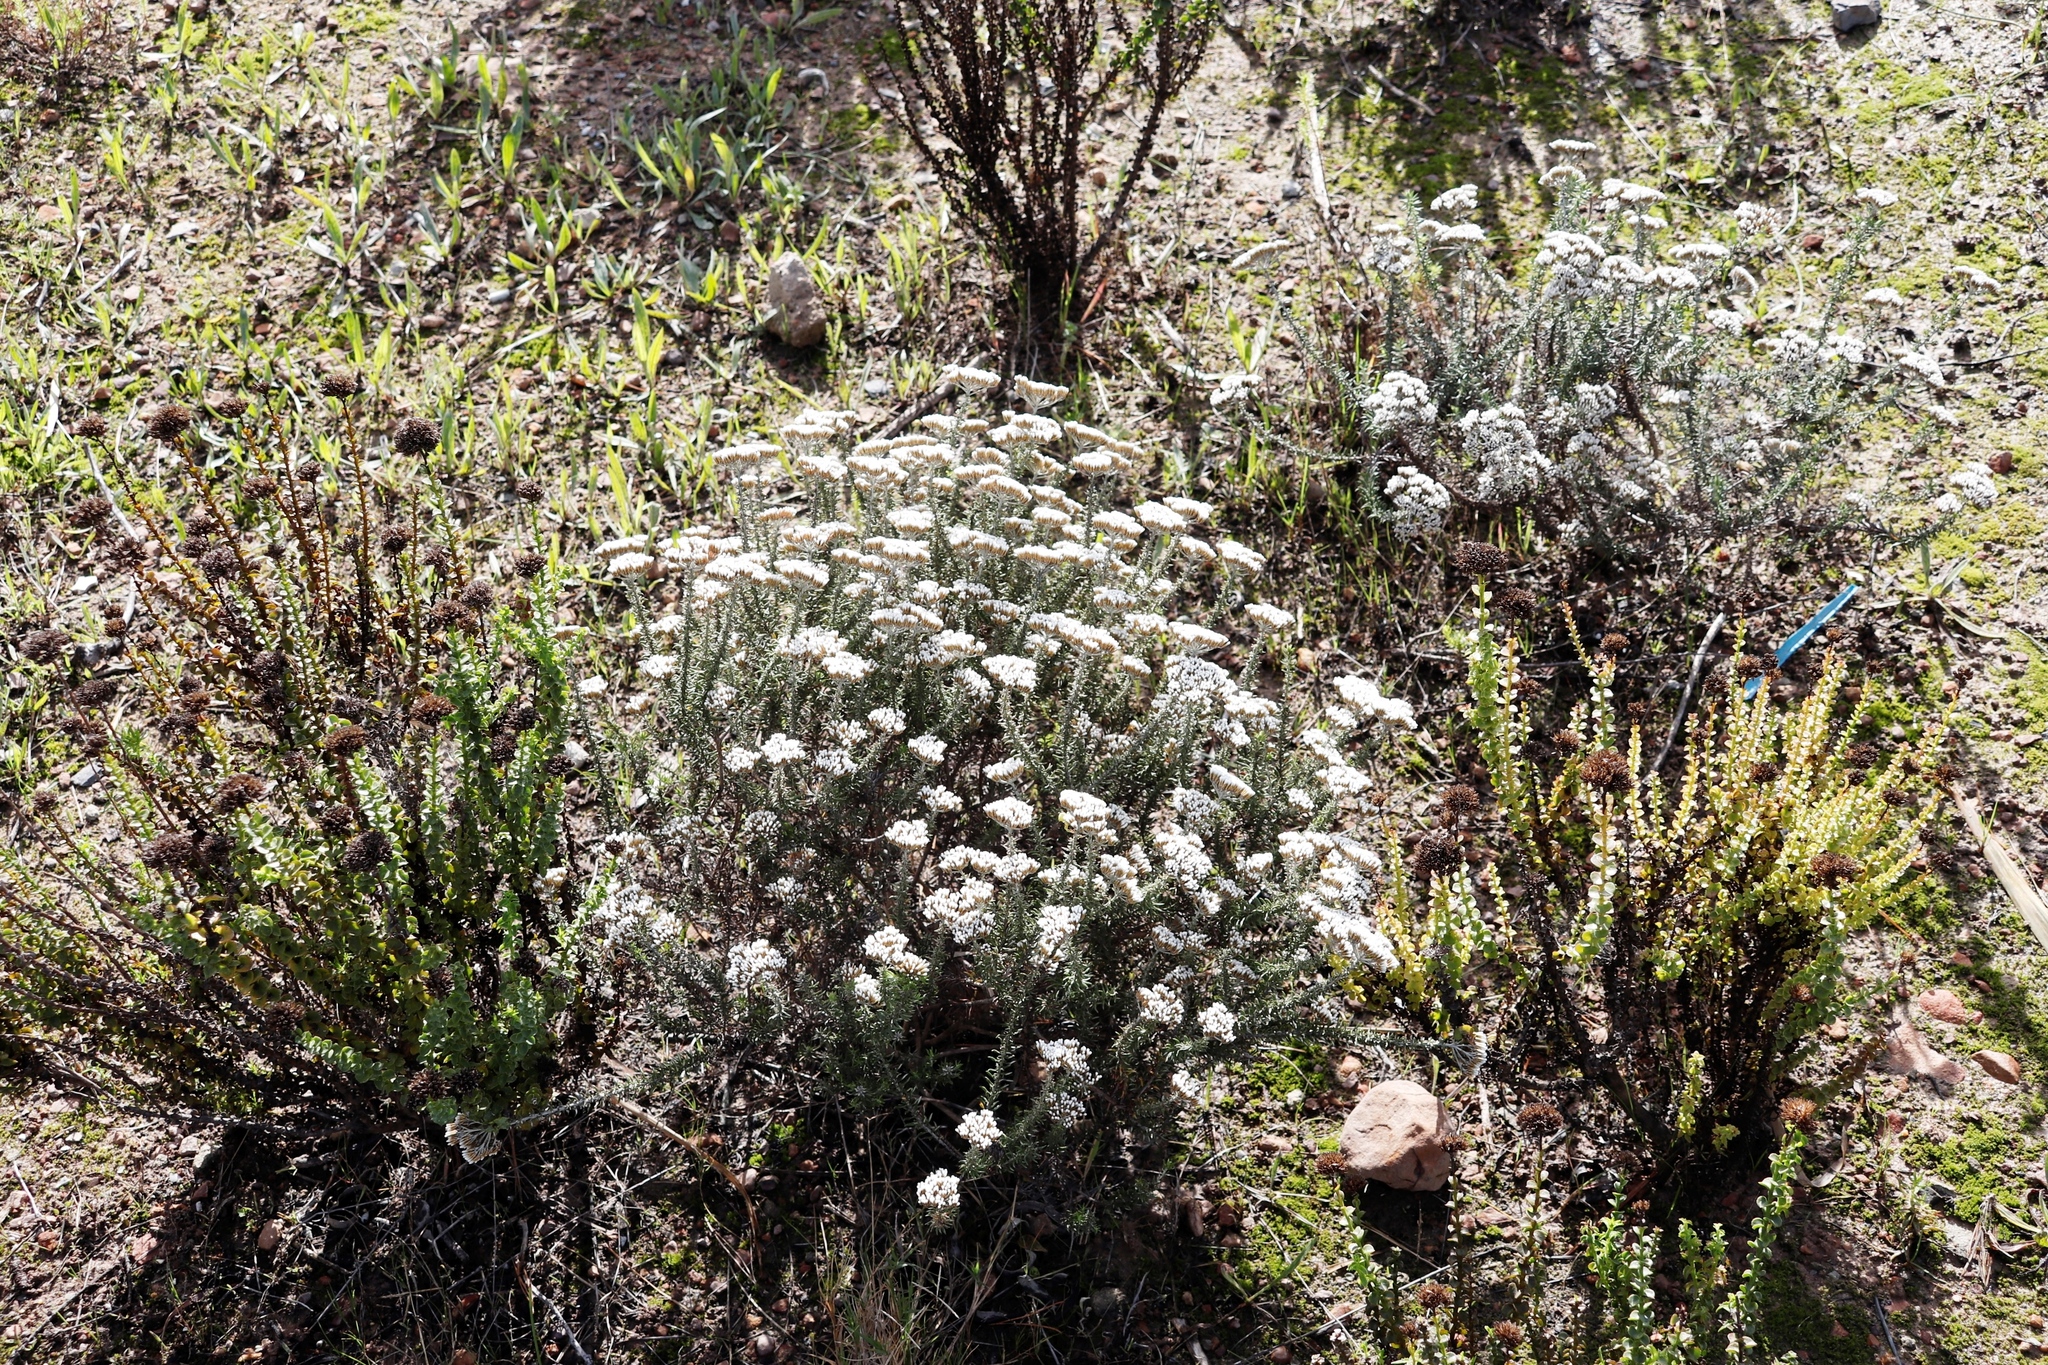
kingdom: Plantae
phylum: Tracheophyta
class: Magnoliopsida
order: Asterales
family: Asteraceae
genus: Metalasia
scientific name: Metalasia densa
